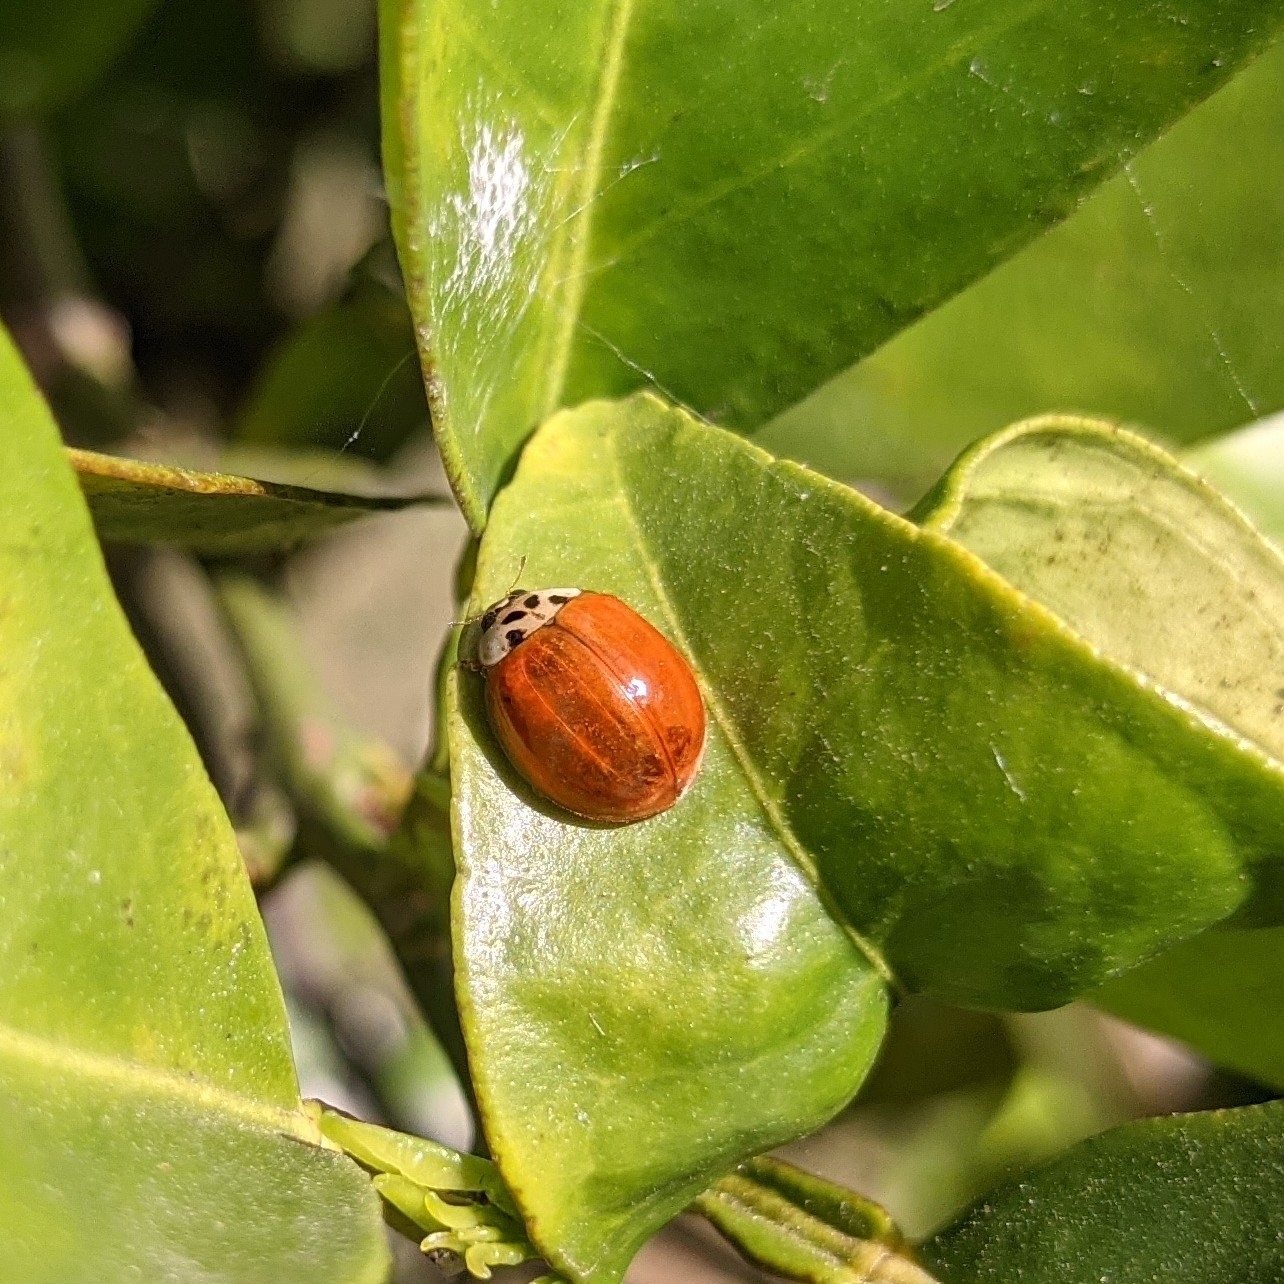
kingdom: Animalia
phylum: Arthropoda
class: Insecta
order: Coleoptera
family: Coccinellidae
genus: Harmonia
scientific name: Harmonia axyridis
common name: Harlequin ladybird
